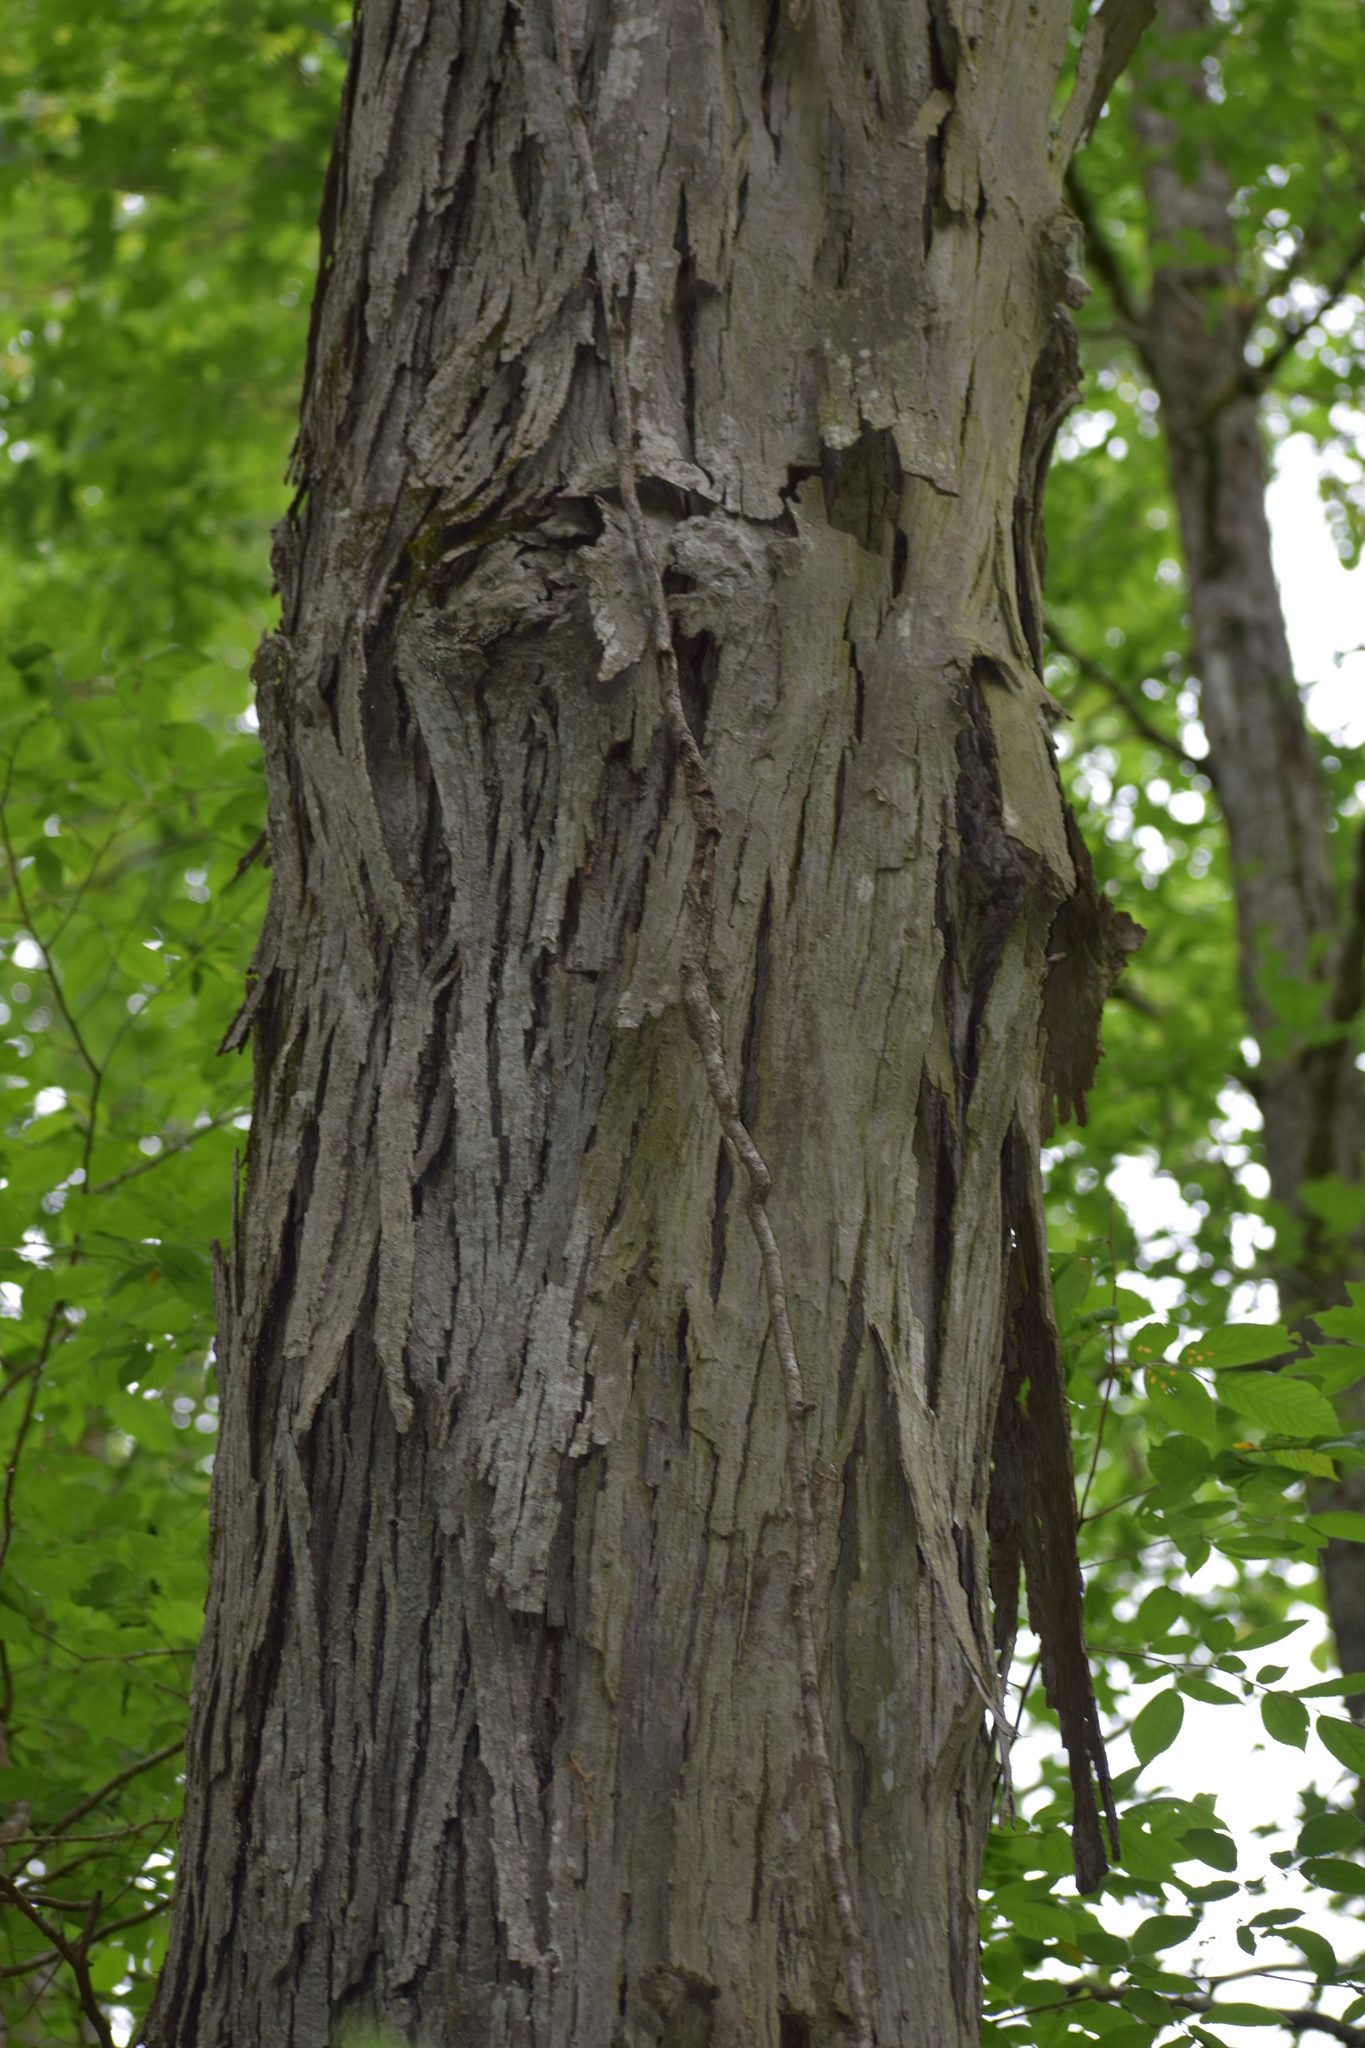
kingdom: Plantae
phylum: Tracheophyta
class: Magnoliopsida
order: Fagales
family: Juglandaceae
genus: Carya
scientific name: Carya ovata
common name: Shagbark hickory
